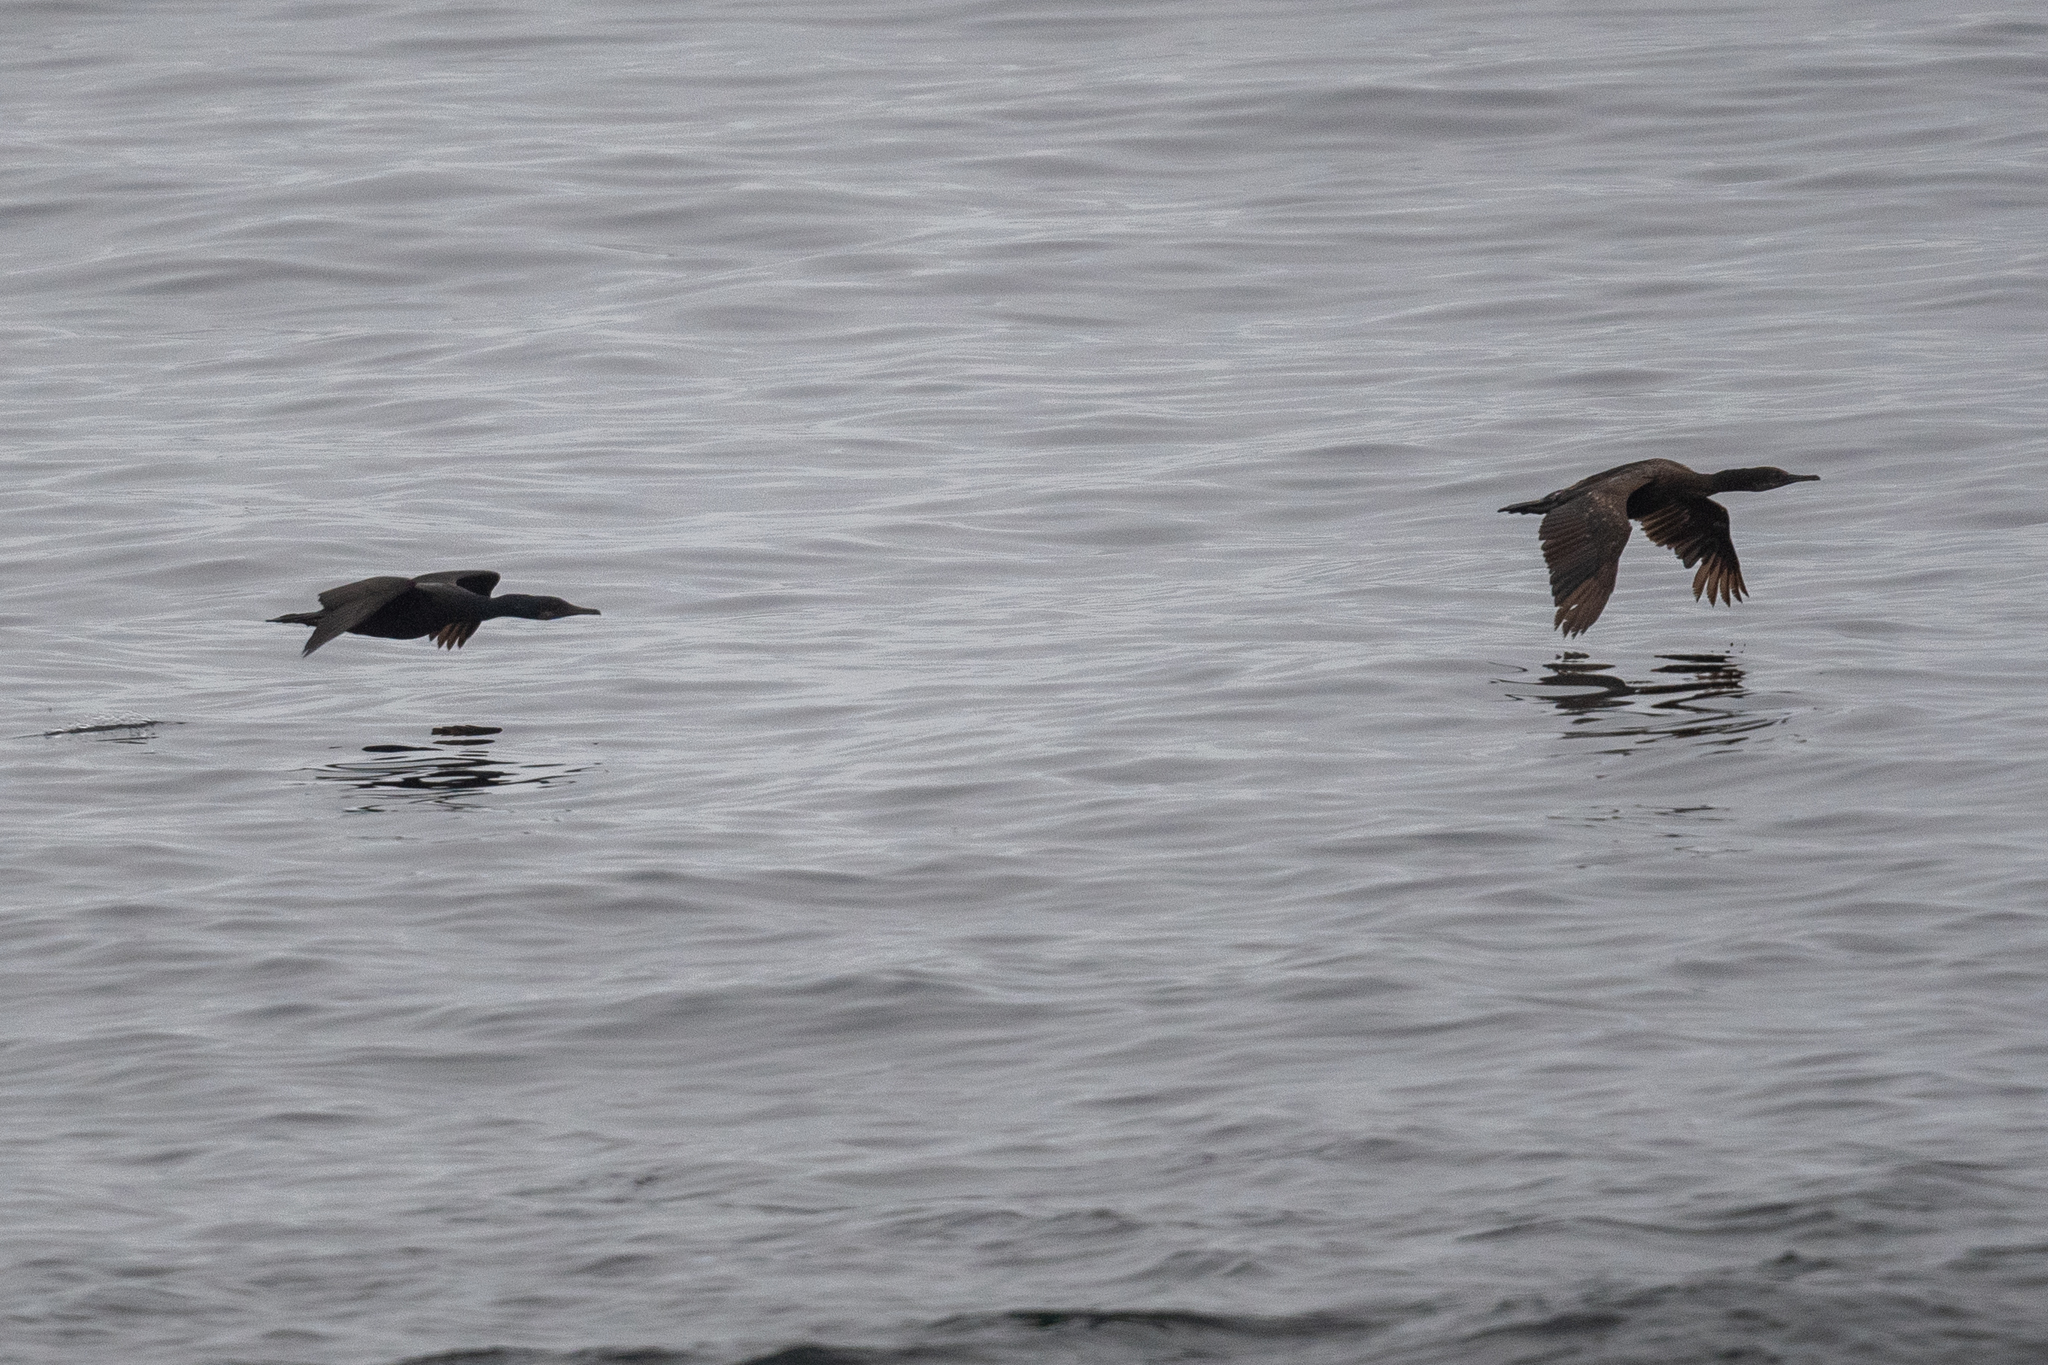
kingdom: Animalia
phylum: Chordata
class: Aves
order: Suliformes
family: Phalacrocoracidae
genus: Urile
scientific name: Urile penicillatus
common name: Brandt's cormorant
